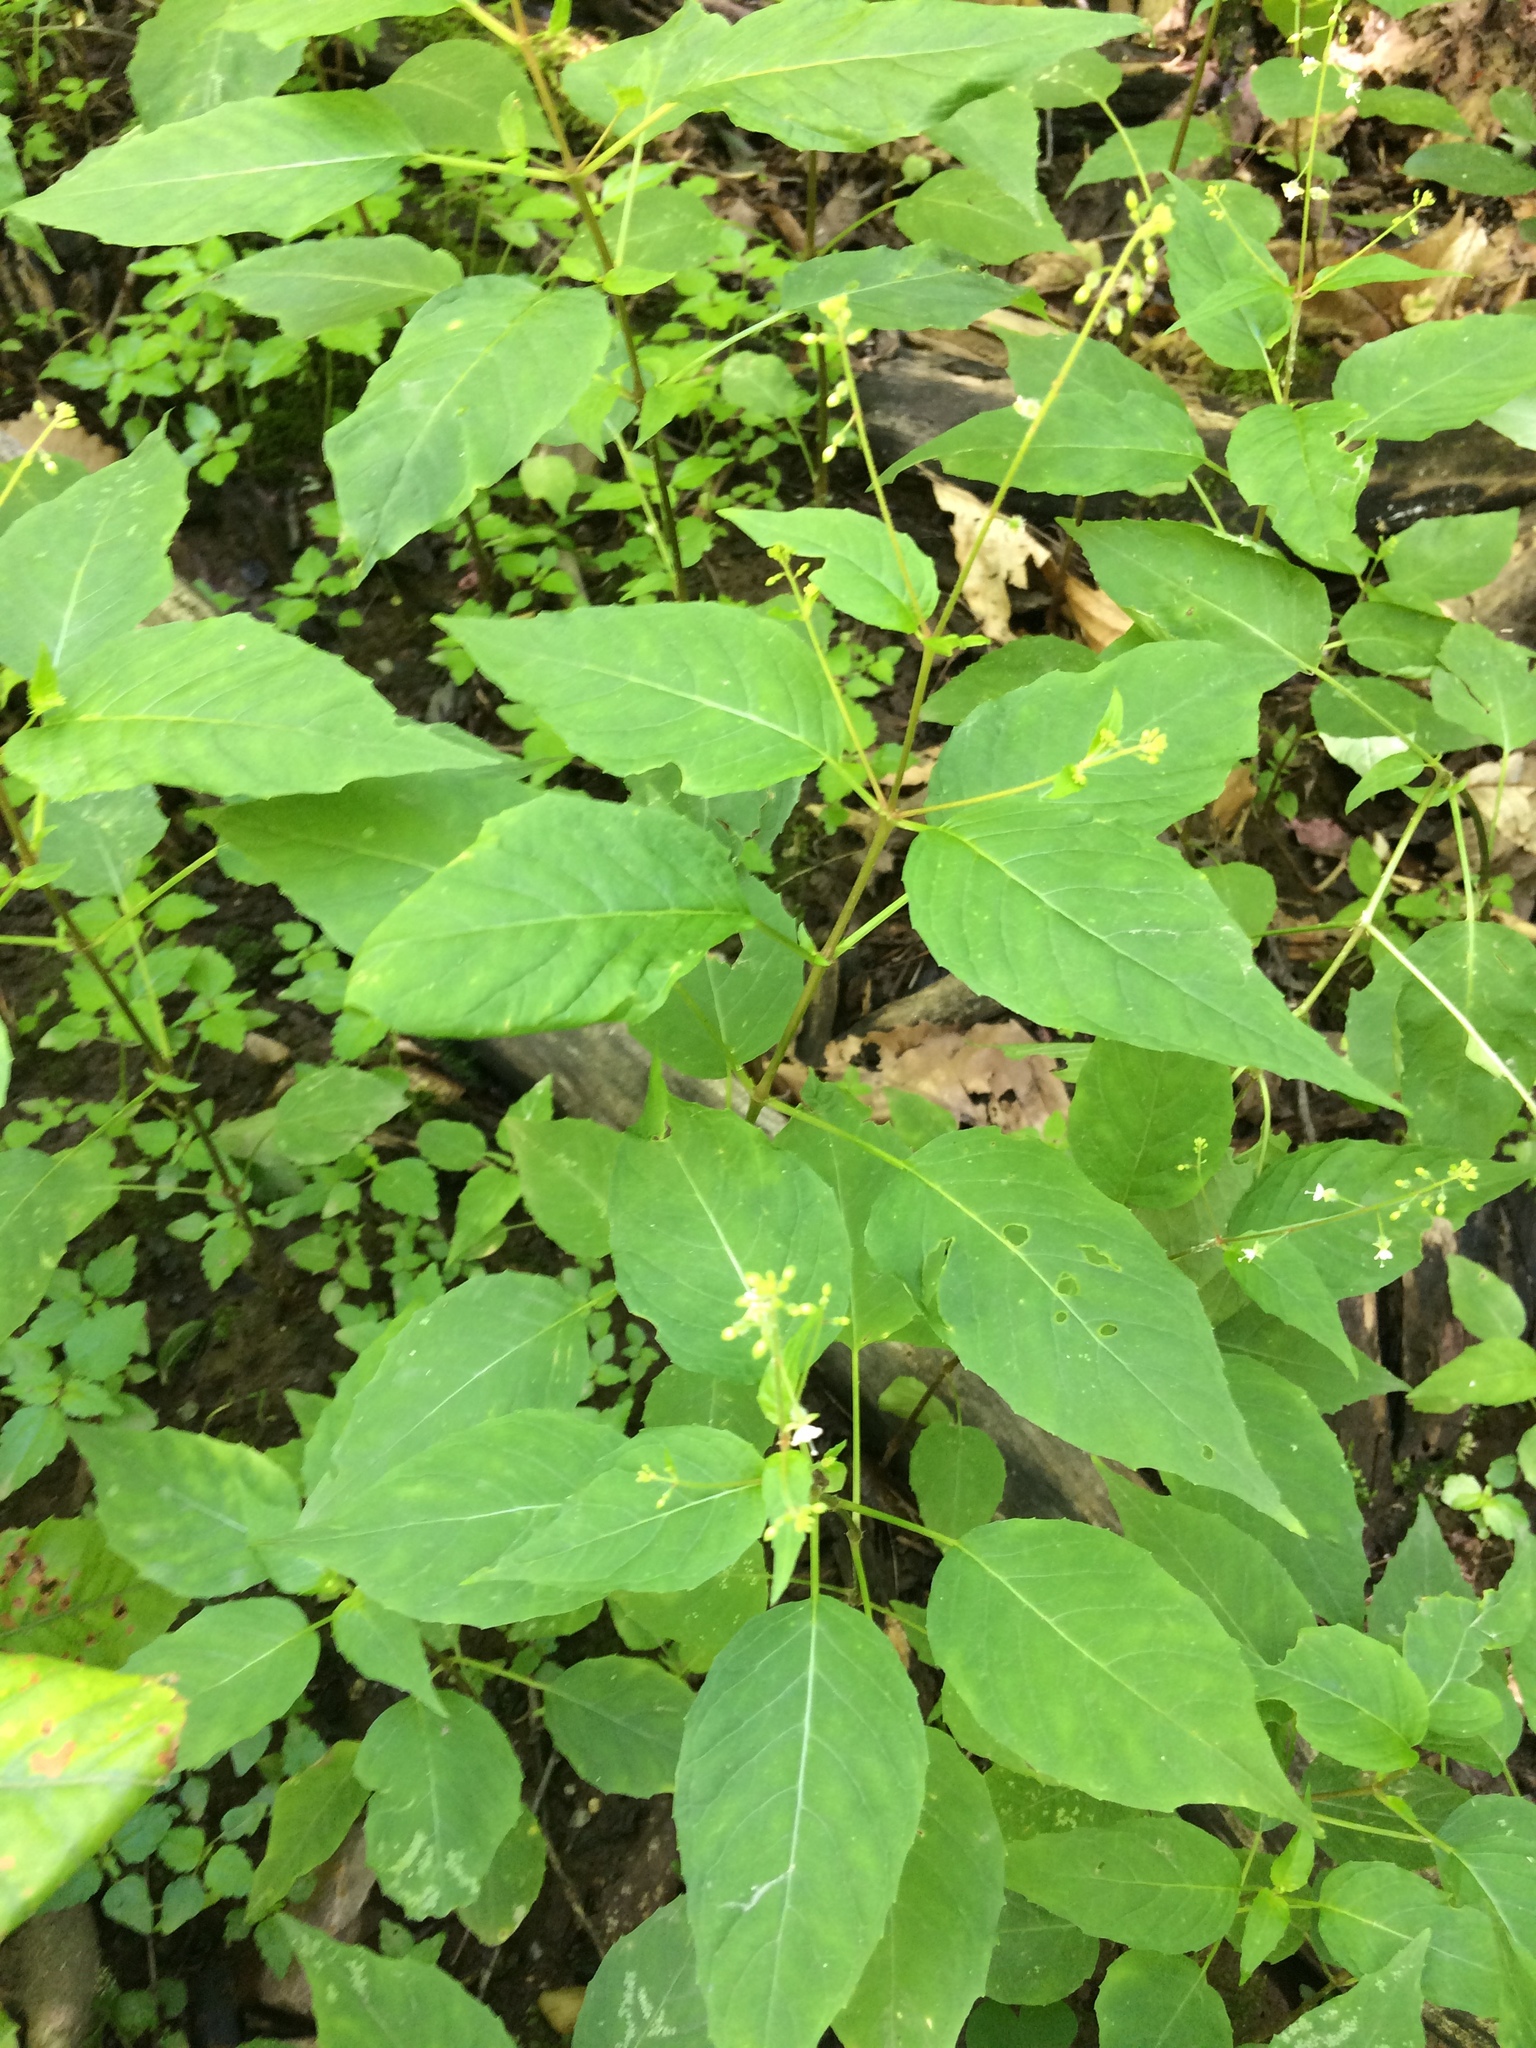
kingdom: Plantae
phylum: Tracheophyta
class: Magnoliopsida
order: Myrtales
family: Onagraceae
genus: Circaea
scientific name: Circaea canadensis
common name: Broad-leaved enchanter's nightshade
